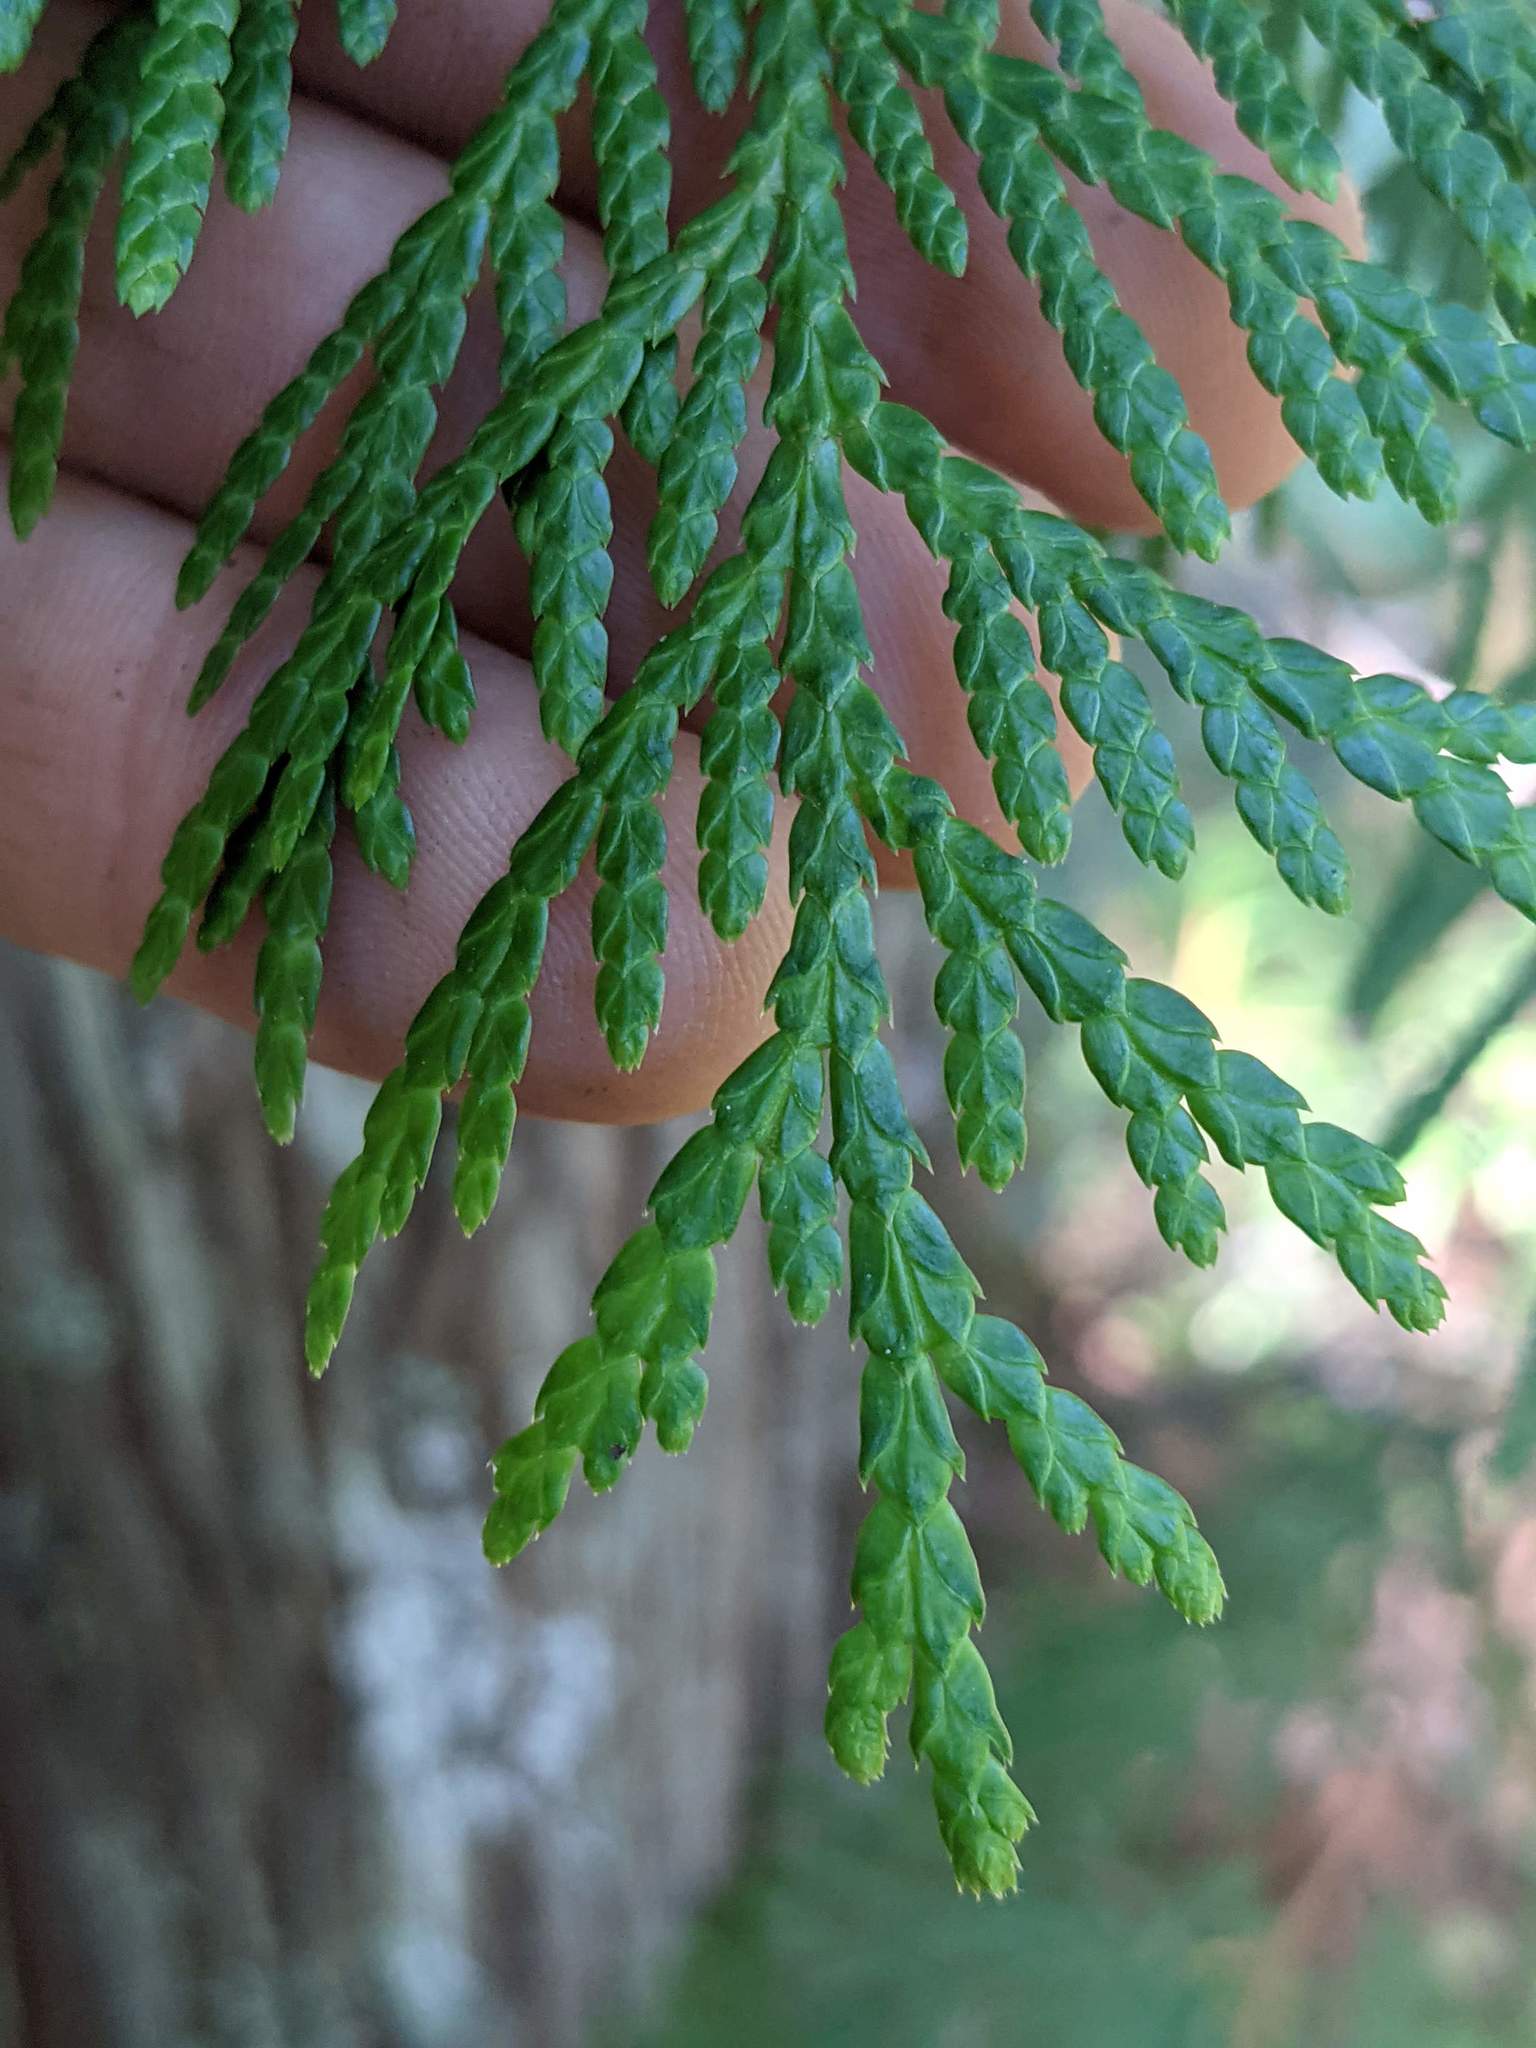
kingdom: Plantae
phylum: Tracheophyta
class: Pinopsida
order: Pinales
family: Cupressaceae
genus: Thuja
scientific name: Thuja plicata
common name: Western red-cedar
